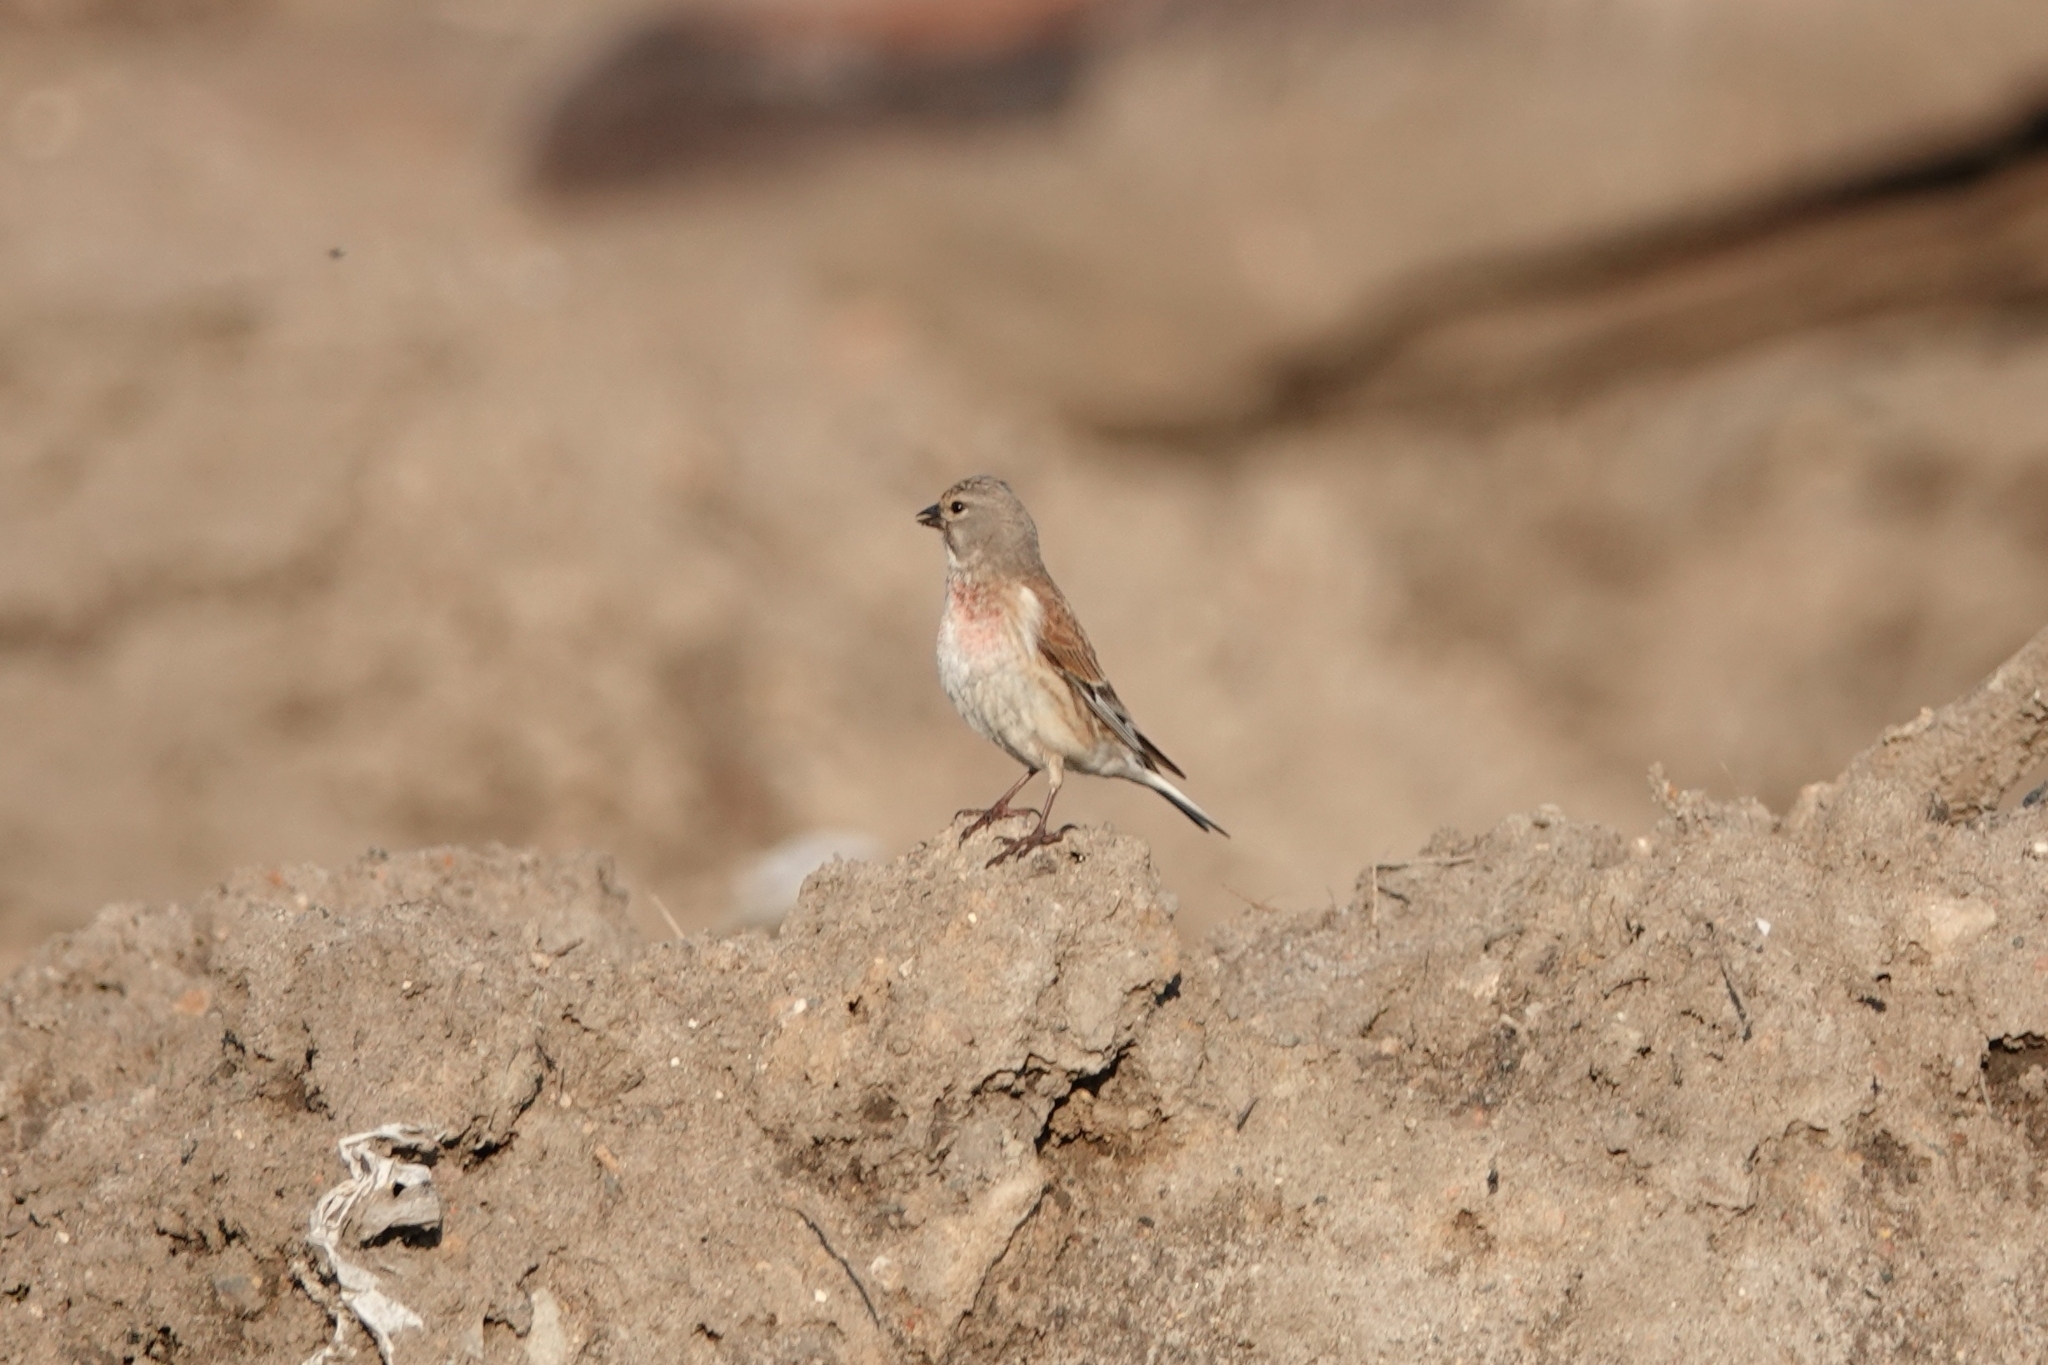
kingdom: Animalia
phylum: Chordata
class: Aves
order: Passeriformes
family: Fringillidae
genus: Linaria
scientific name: Linaria cannabina
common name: Common linnet
